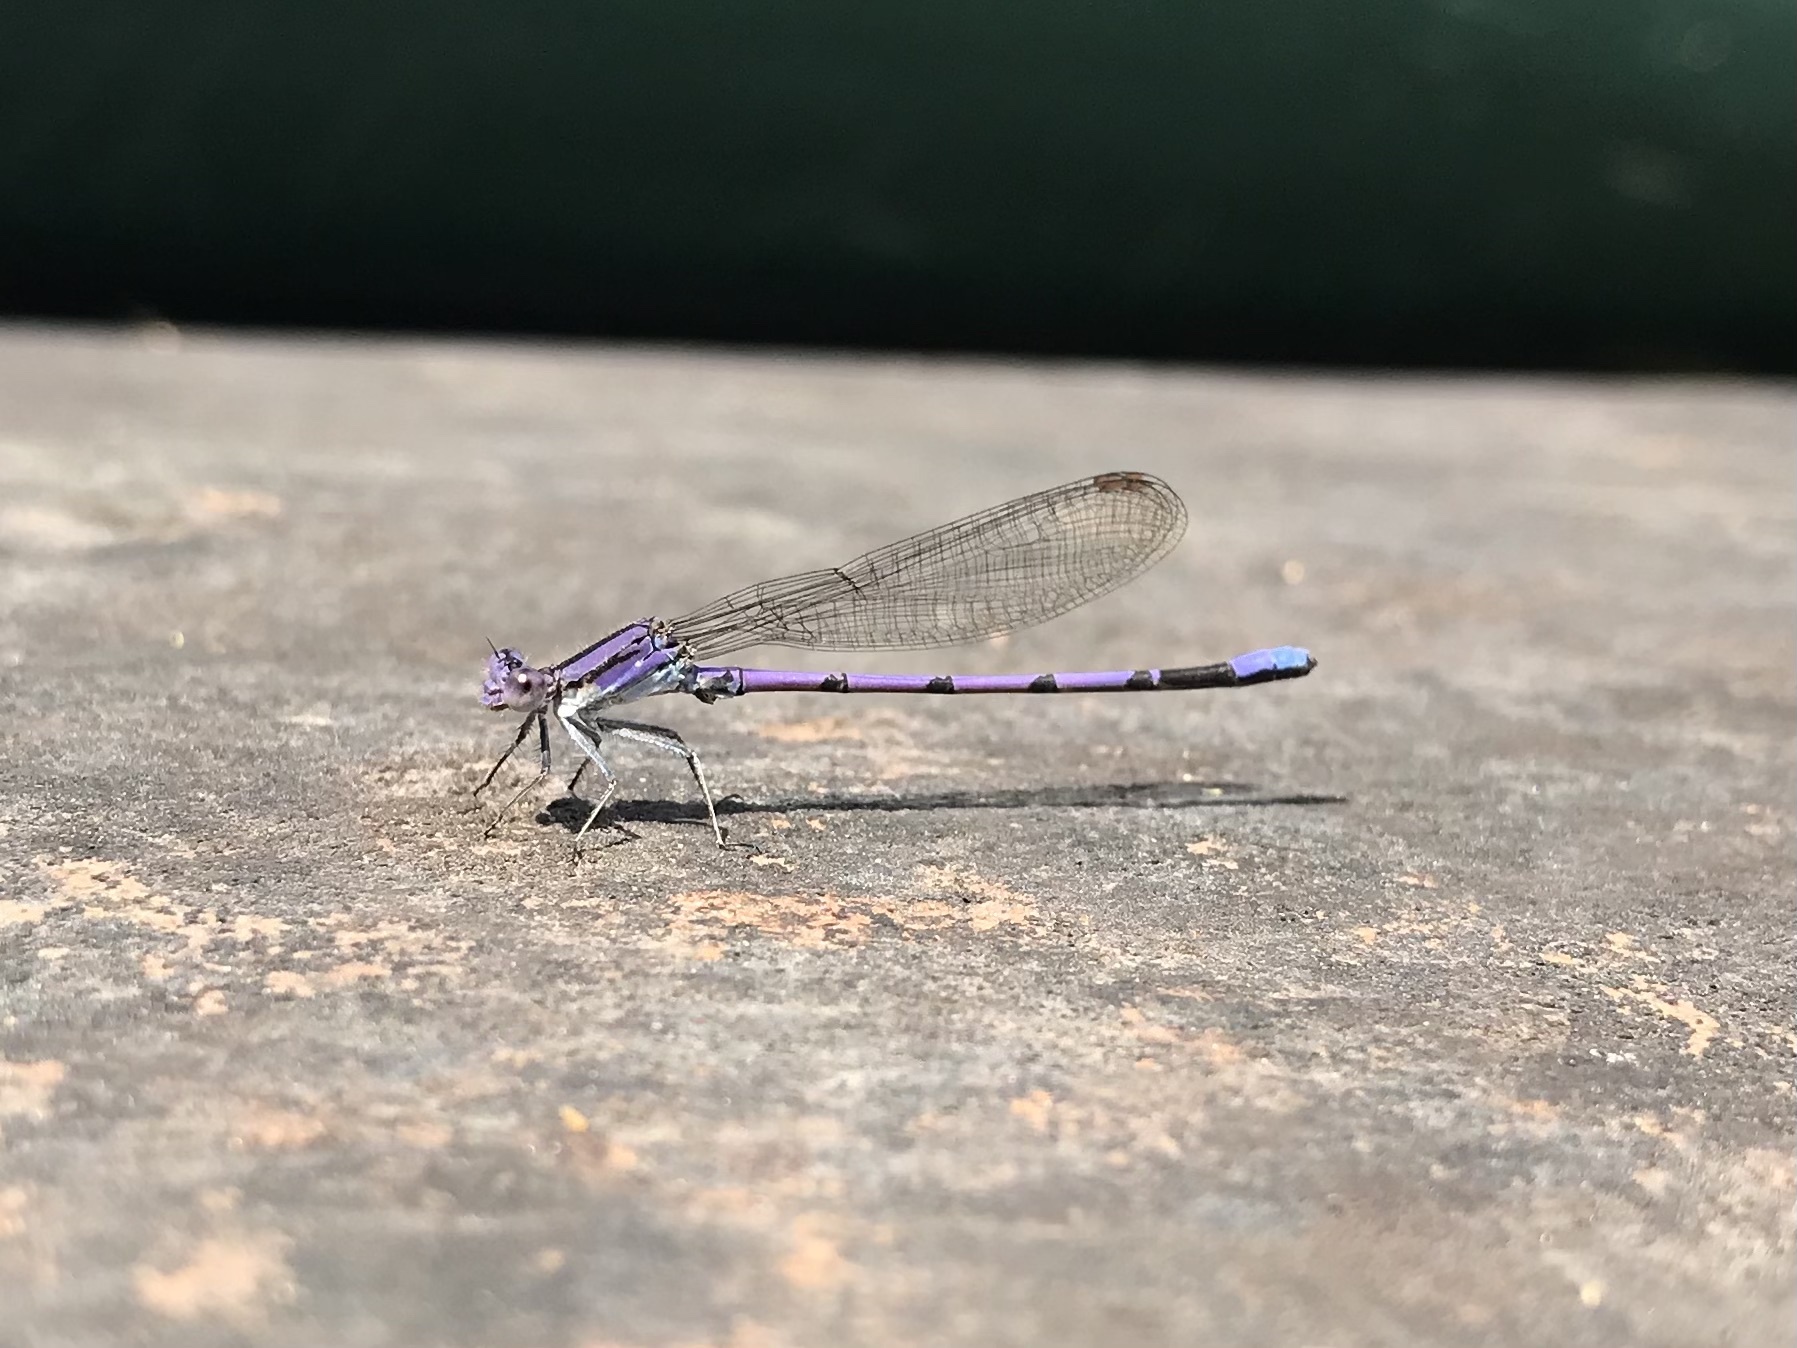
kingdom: Animalia
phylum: Arthropoda
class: Insecta
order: Odonata
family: Coenagrionidae
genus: Argia
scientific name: Argia fumipennis
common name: Variable dancer
